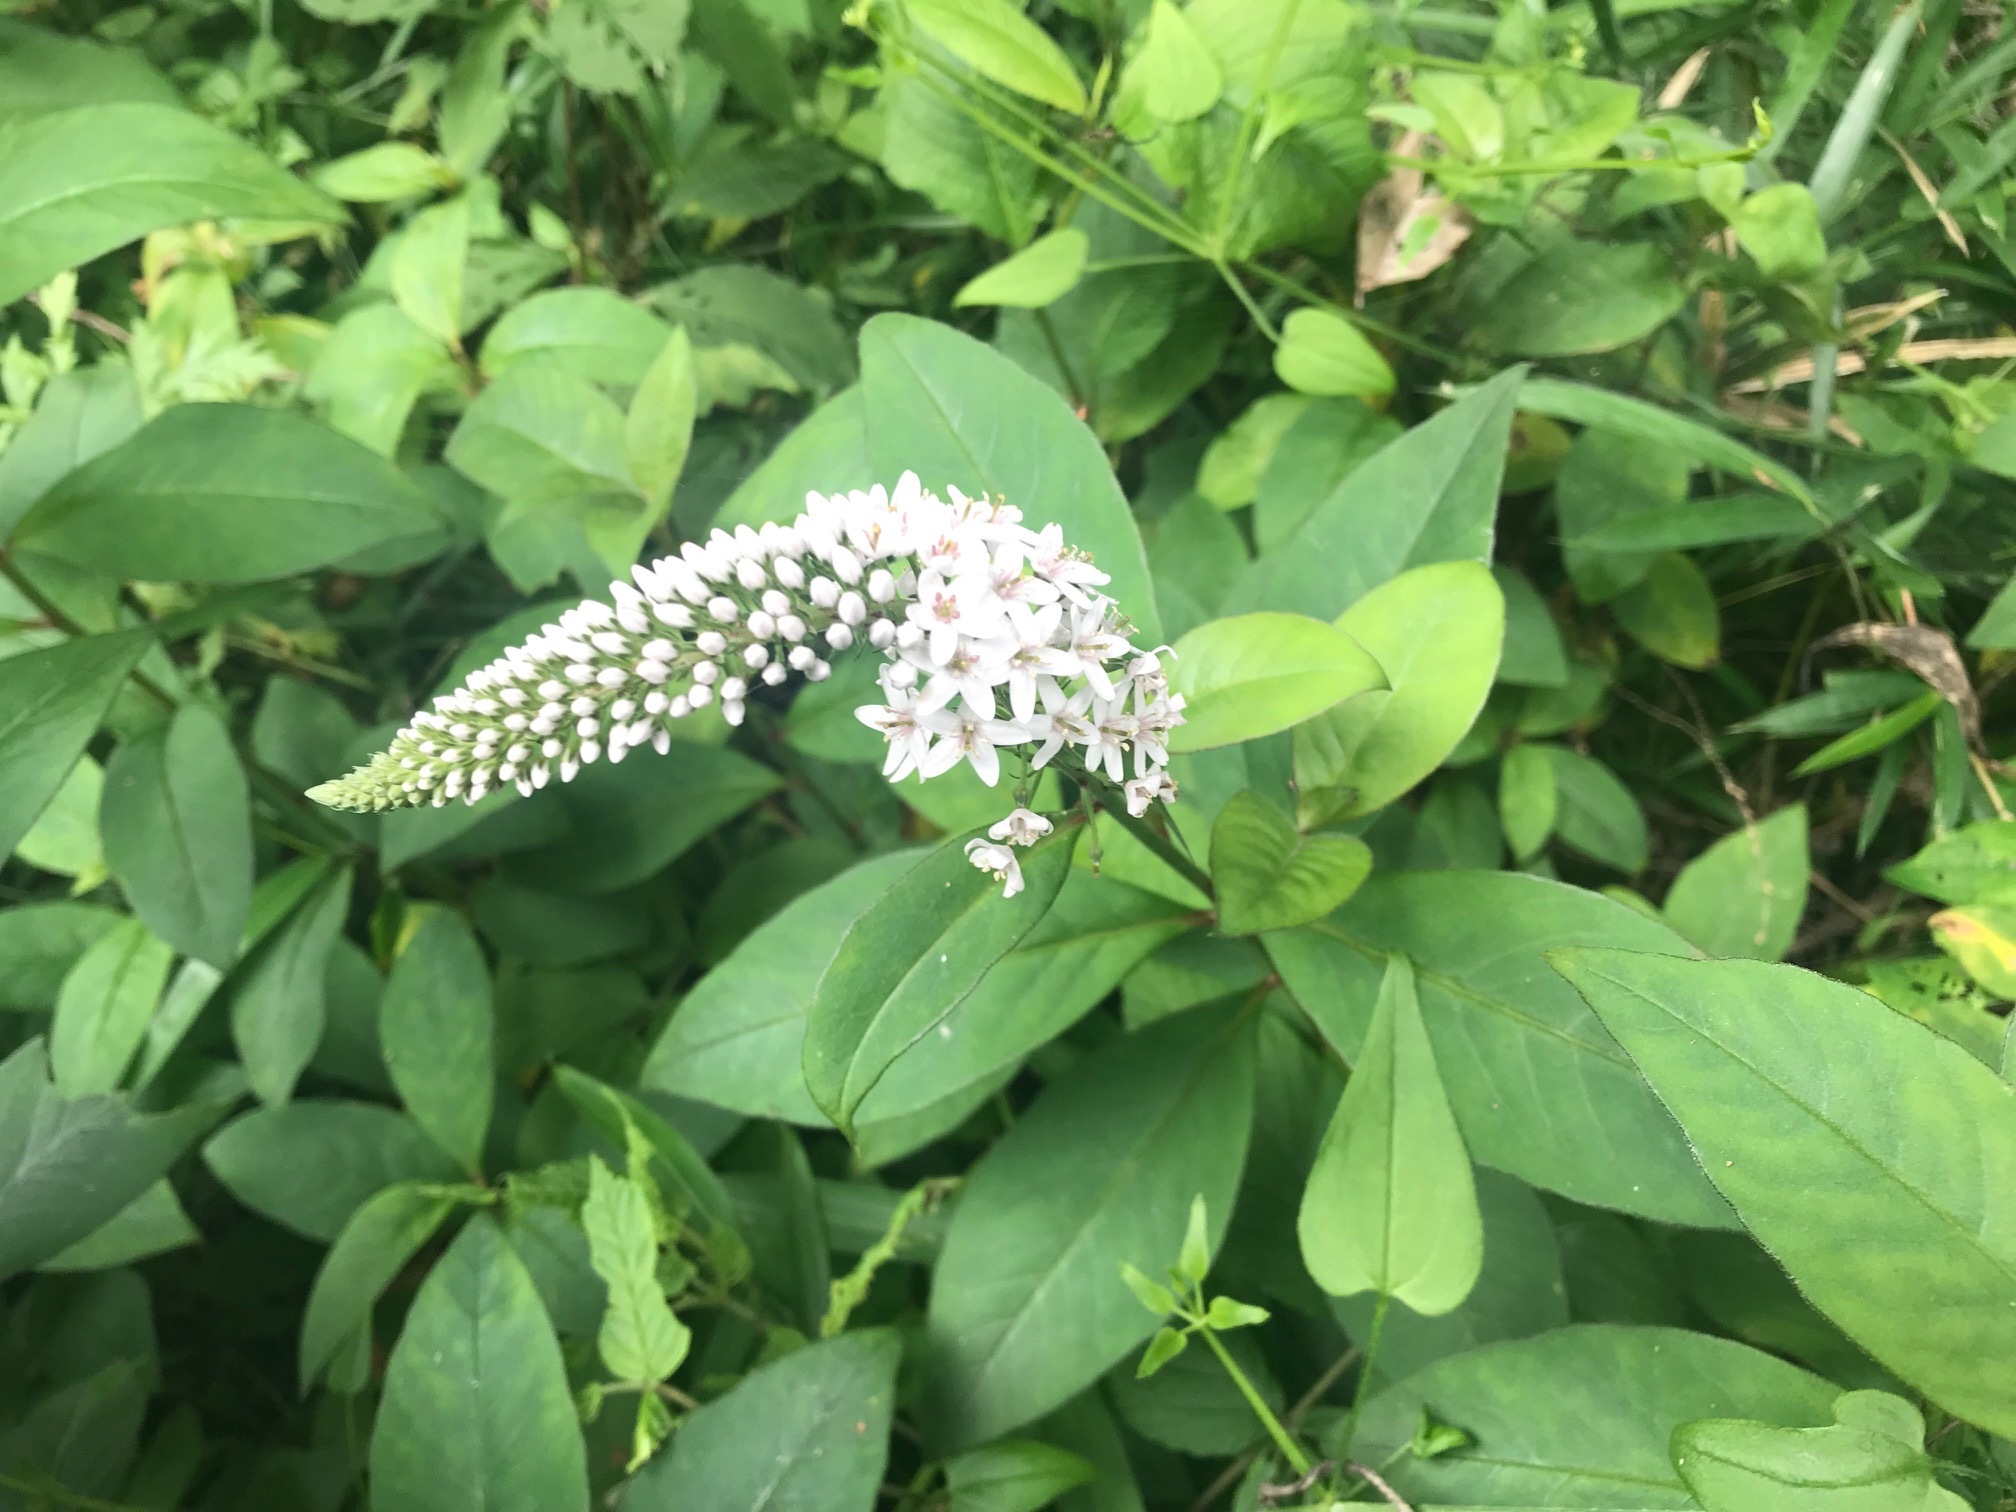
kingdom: Plantae
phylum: Tracheophyta
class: Magnoliopsida
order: Ericales
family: Primulaceae
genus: Lysimachia
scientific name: Lysimachia clethroides
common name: Gooseneck loosestrife
